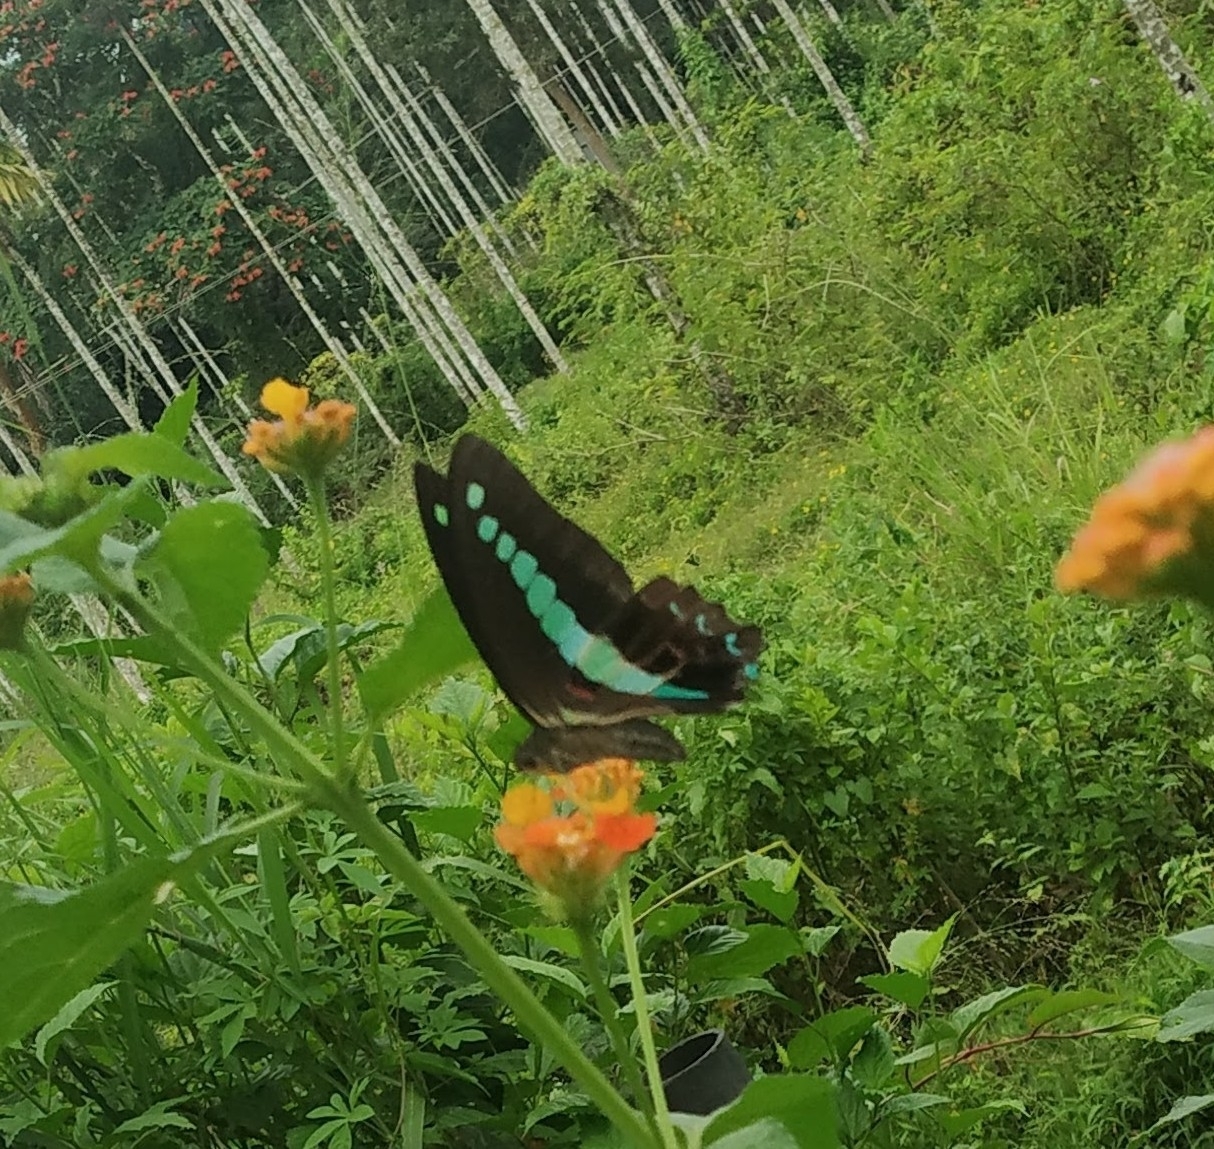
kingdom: Animalia
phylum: Arthropoda
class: Insecta
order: Lepidoptera
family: Papilionidae
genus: Graphium
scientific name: Graphium
